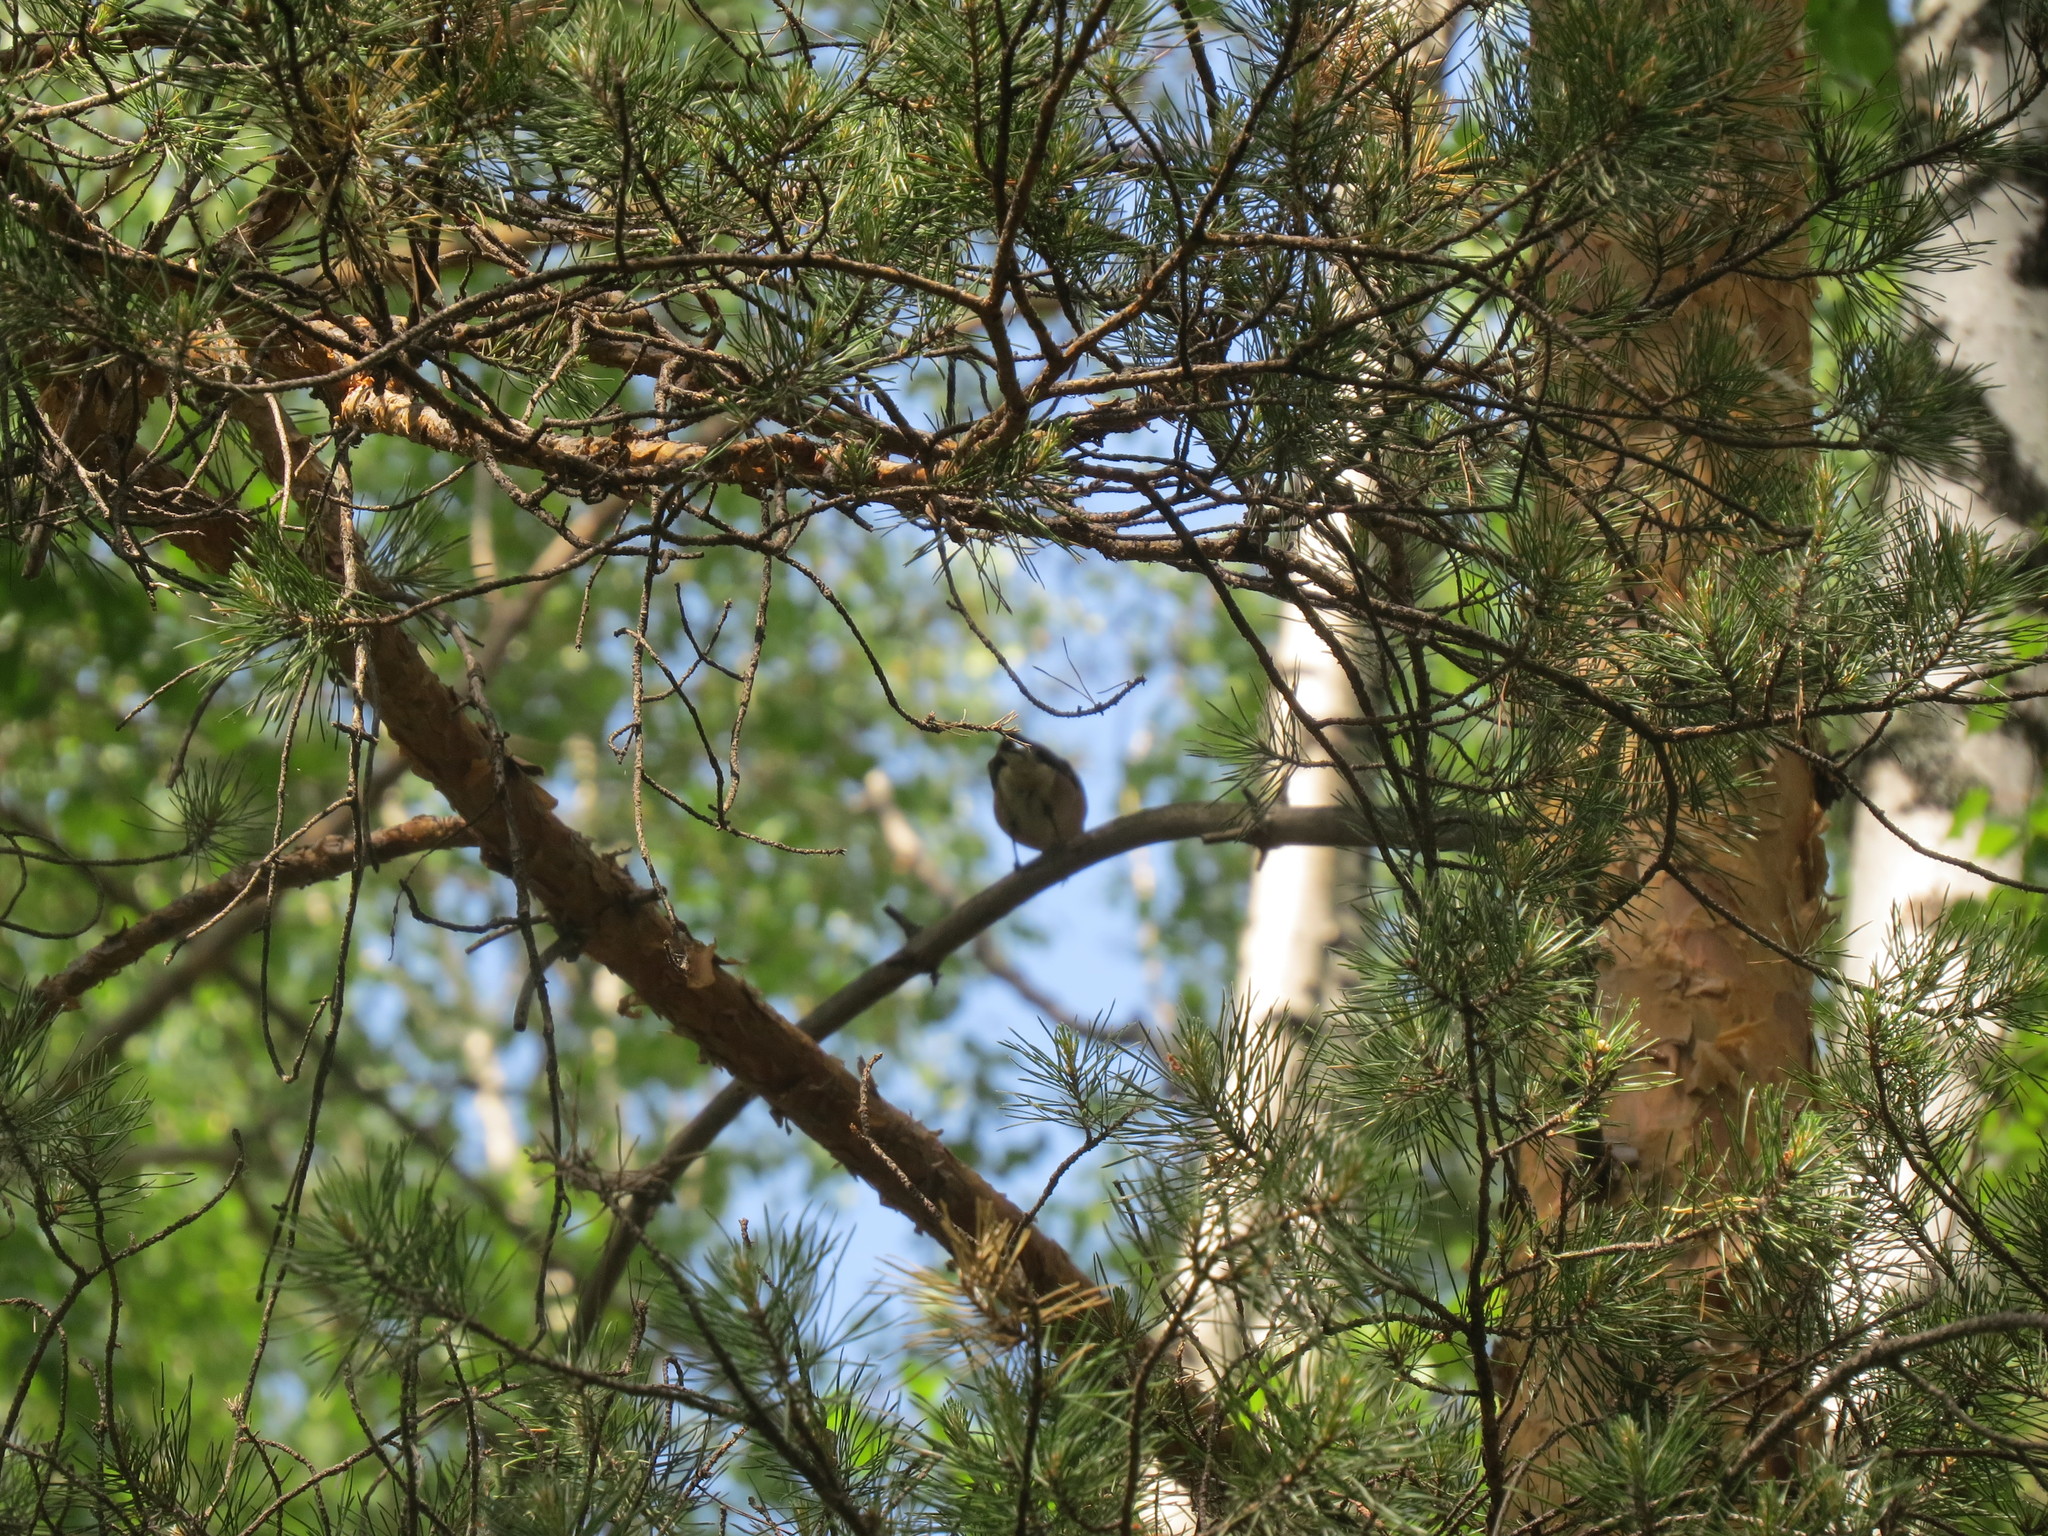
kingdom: Animalia
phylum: Chordata
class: Aves
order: Passeriformes
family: Fringillidae
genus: Fringilla
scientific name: Fringilla coelebs
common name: Common chaffinch
